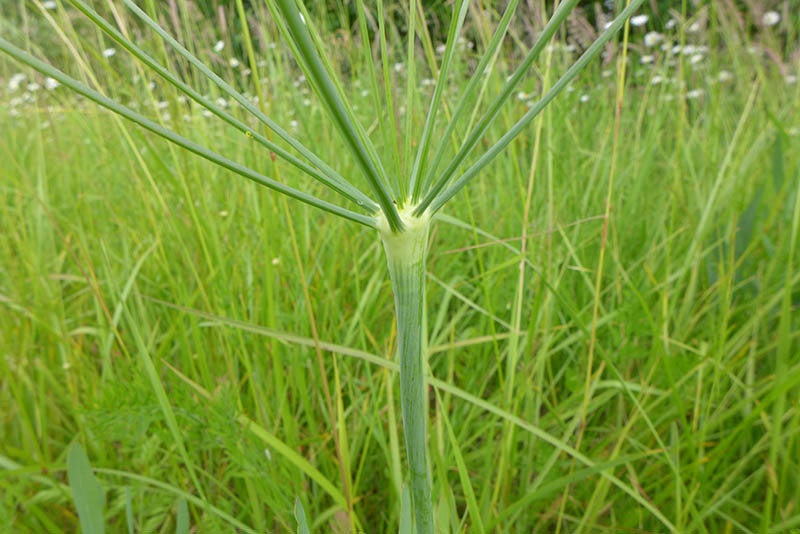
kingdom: Plantae
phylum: Tracheophyta
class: Magnoliopsida
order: Apiales
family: Apiaceae
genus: Lomatium
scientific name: Lomatium nudicaule
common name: Pestle lomatium
